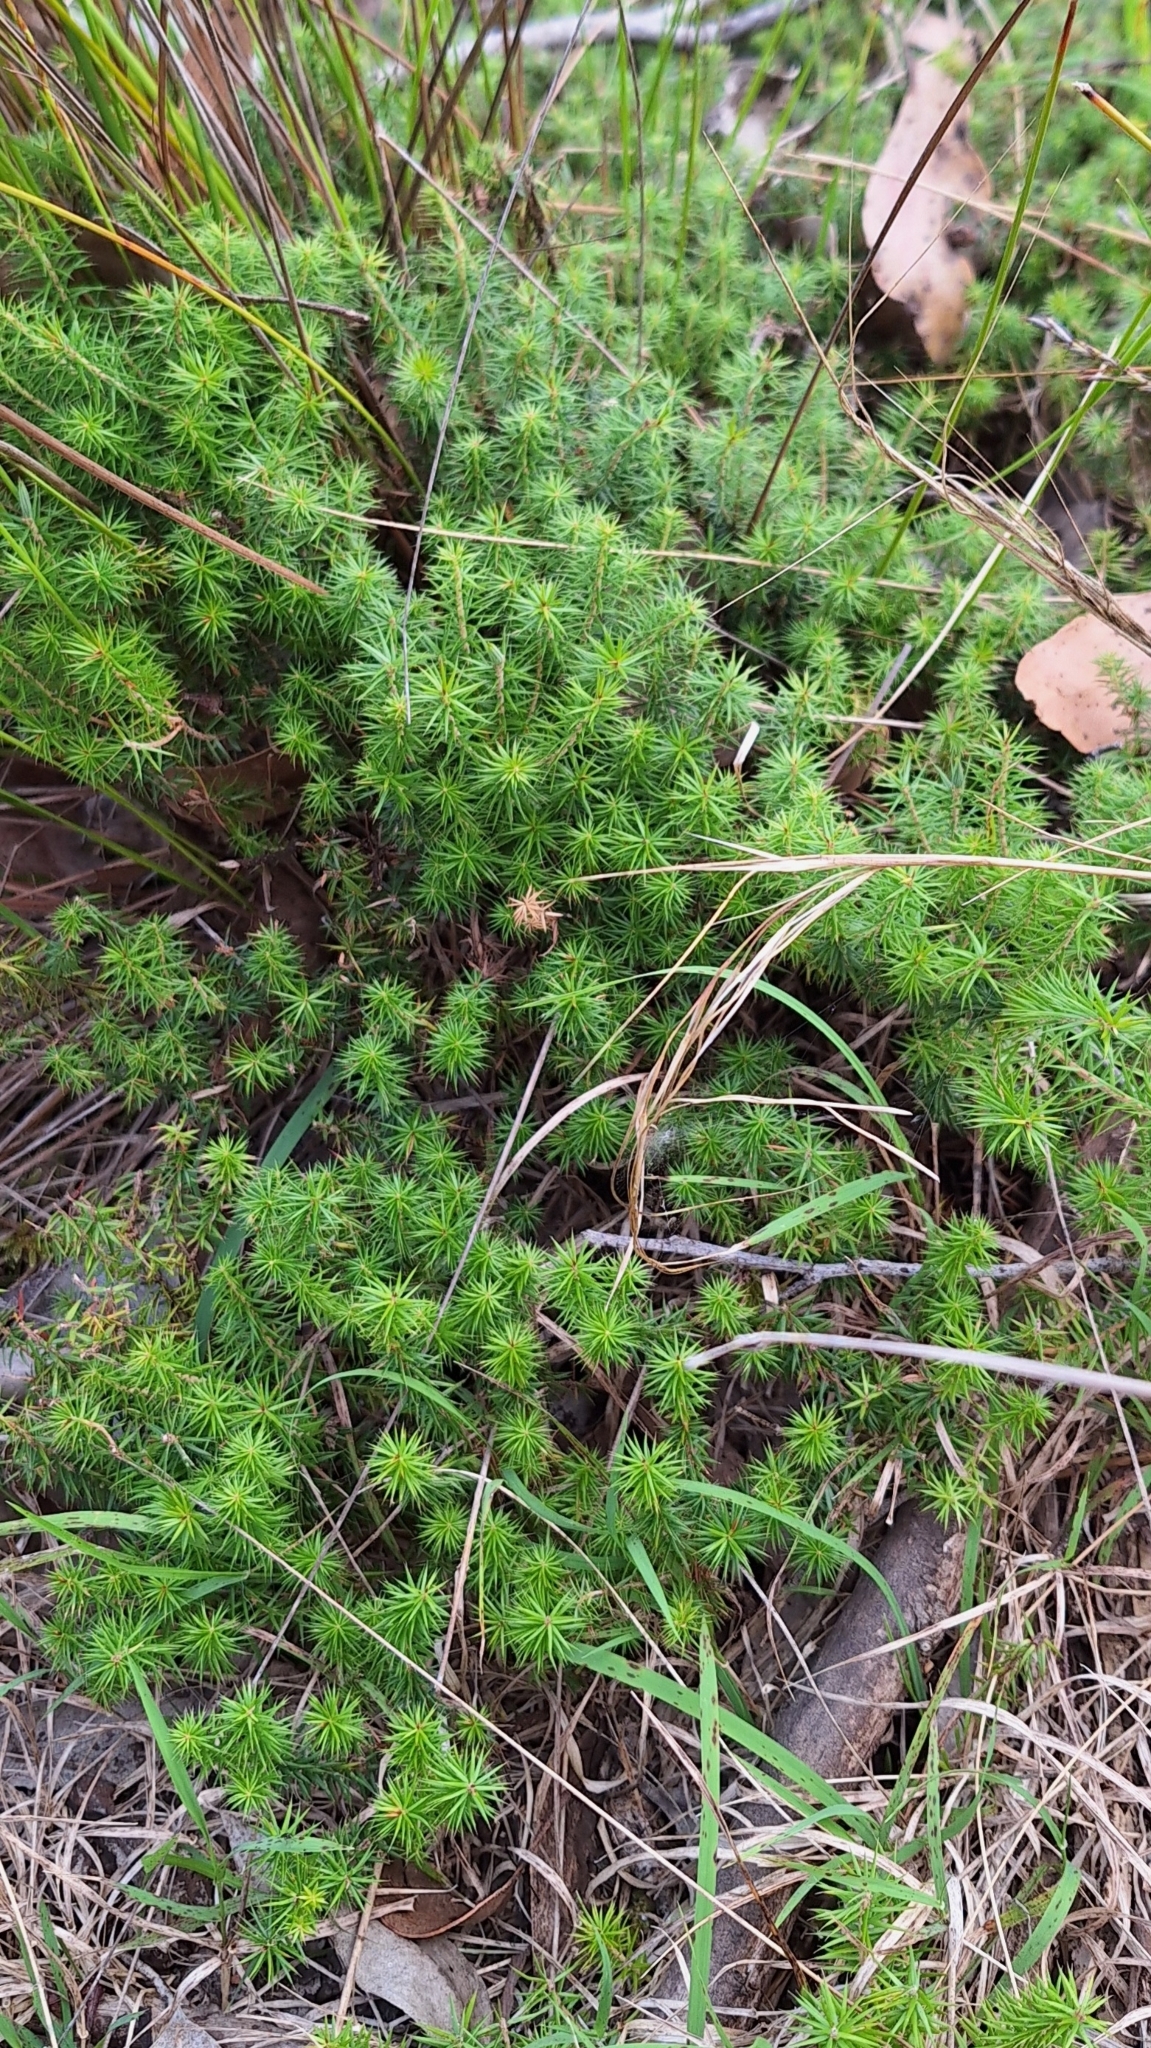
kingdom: Plantae
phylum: Tracheophyta
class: Magnoliopsida
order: Ericales
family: Ericaceae
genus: Acrotriche
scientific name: Acrotriche serrulata
